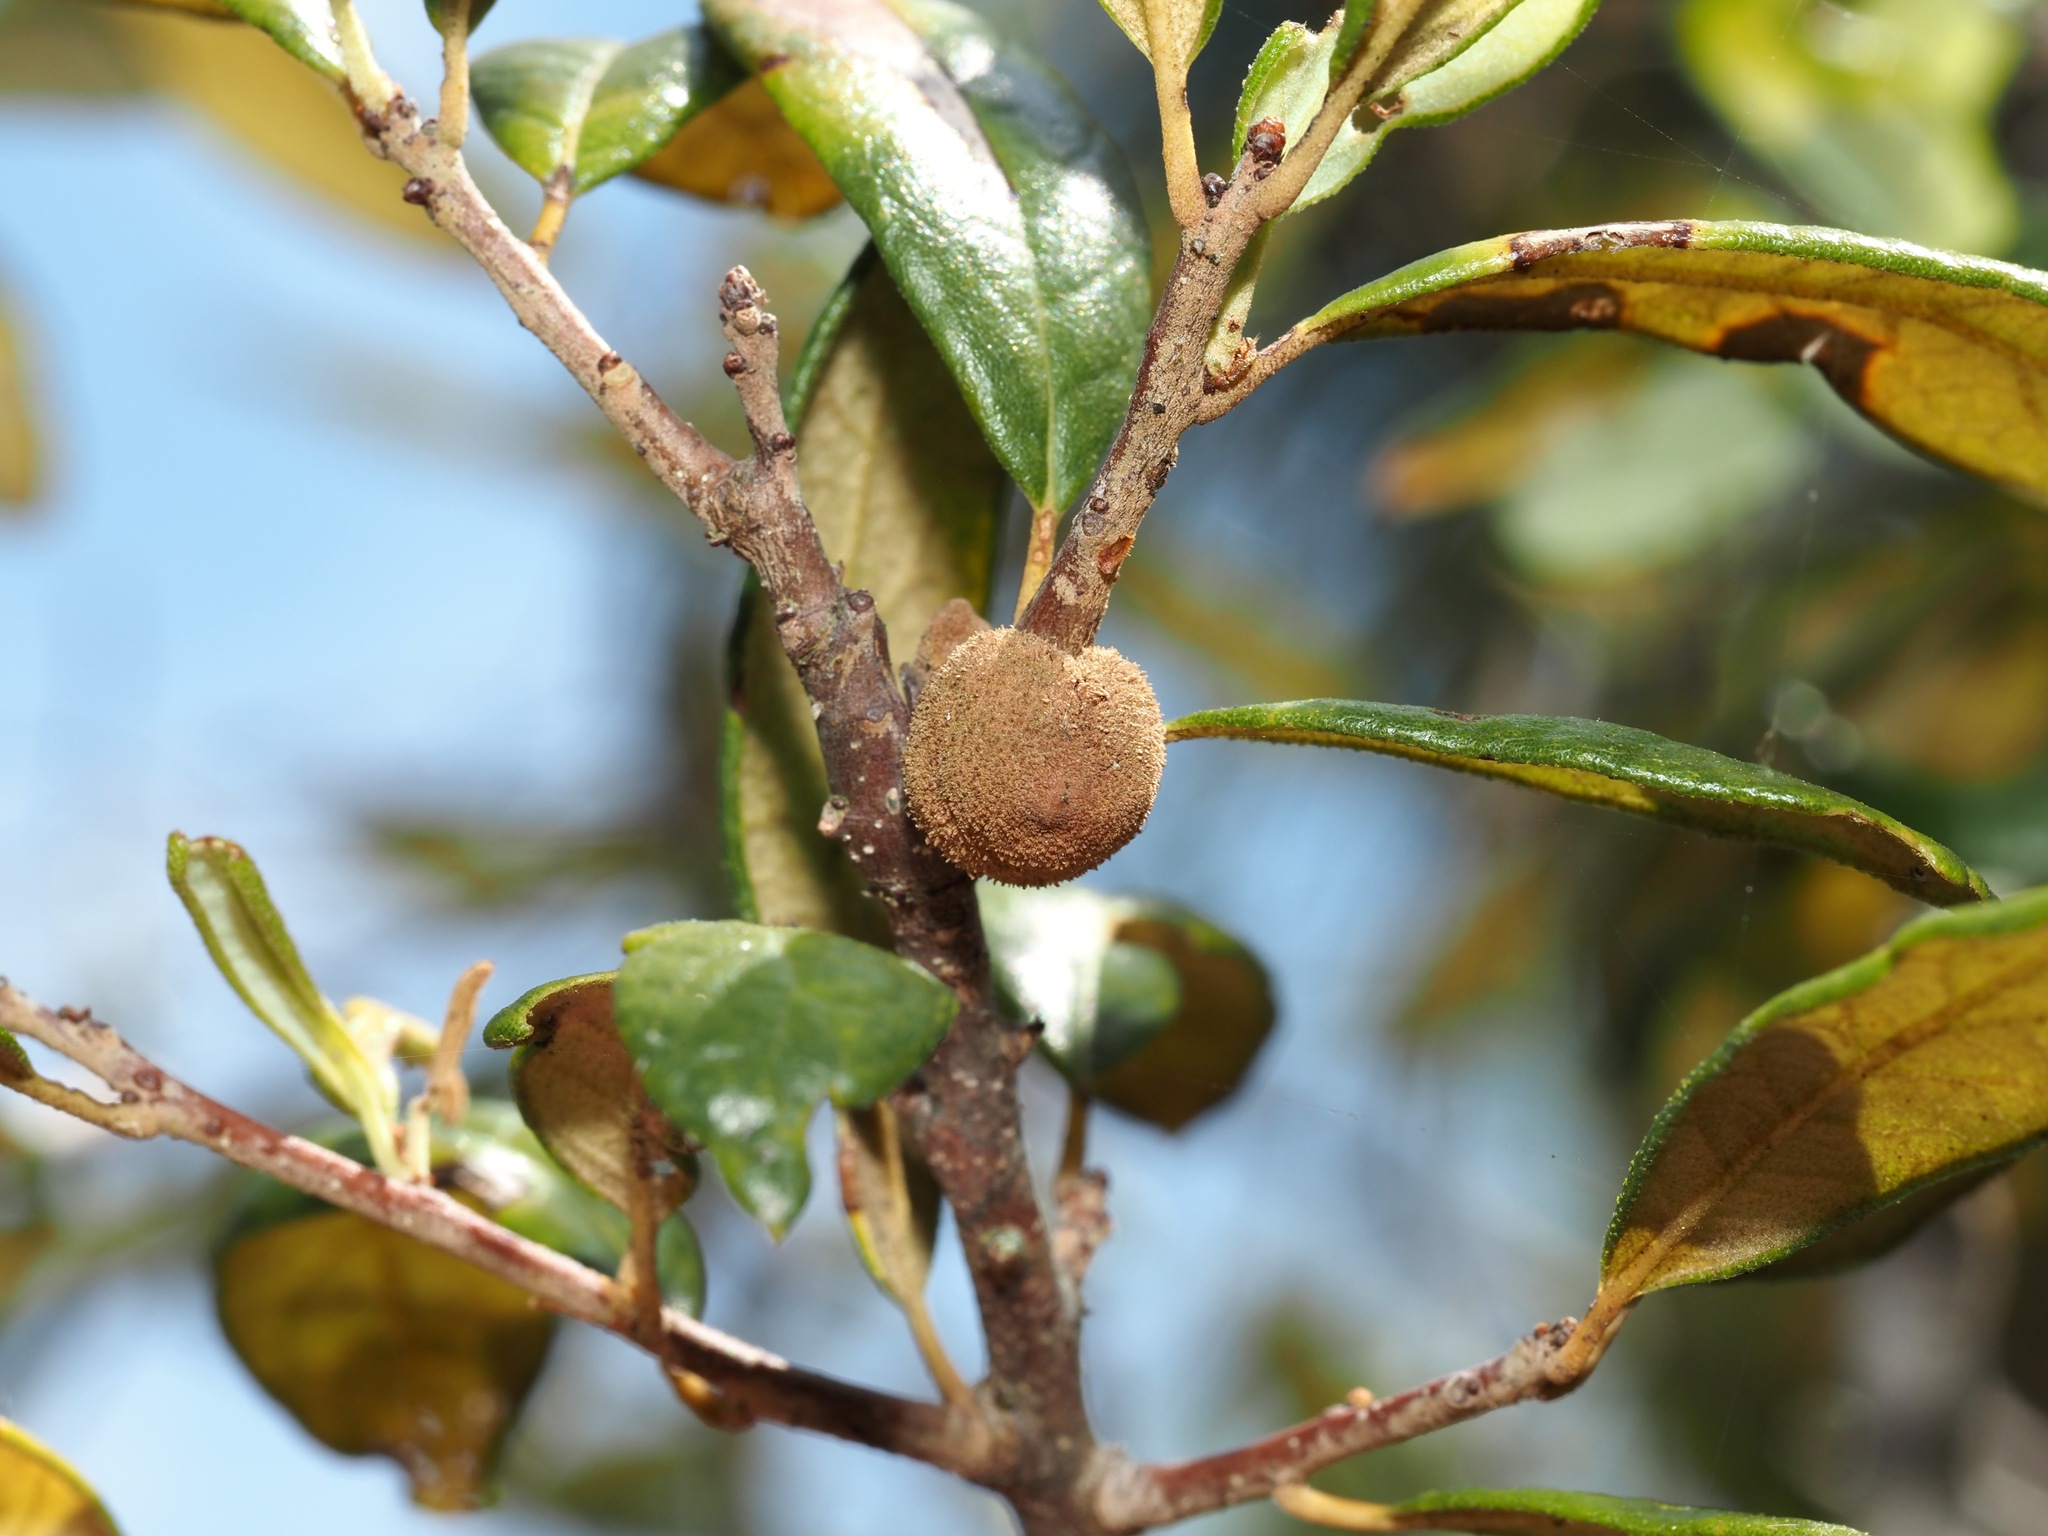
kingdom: Animalia
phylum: Arthropoda
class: Insecta
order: Hymenoptera
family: Cynipidae
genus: Disholcaspis
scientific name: Disholcaspis
